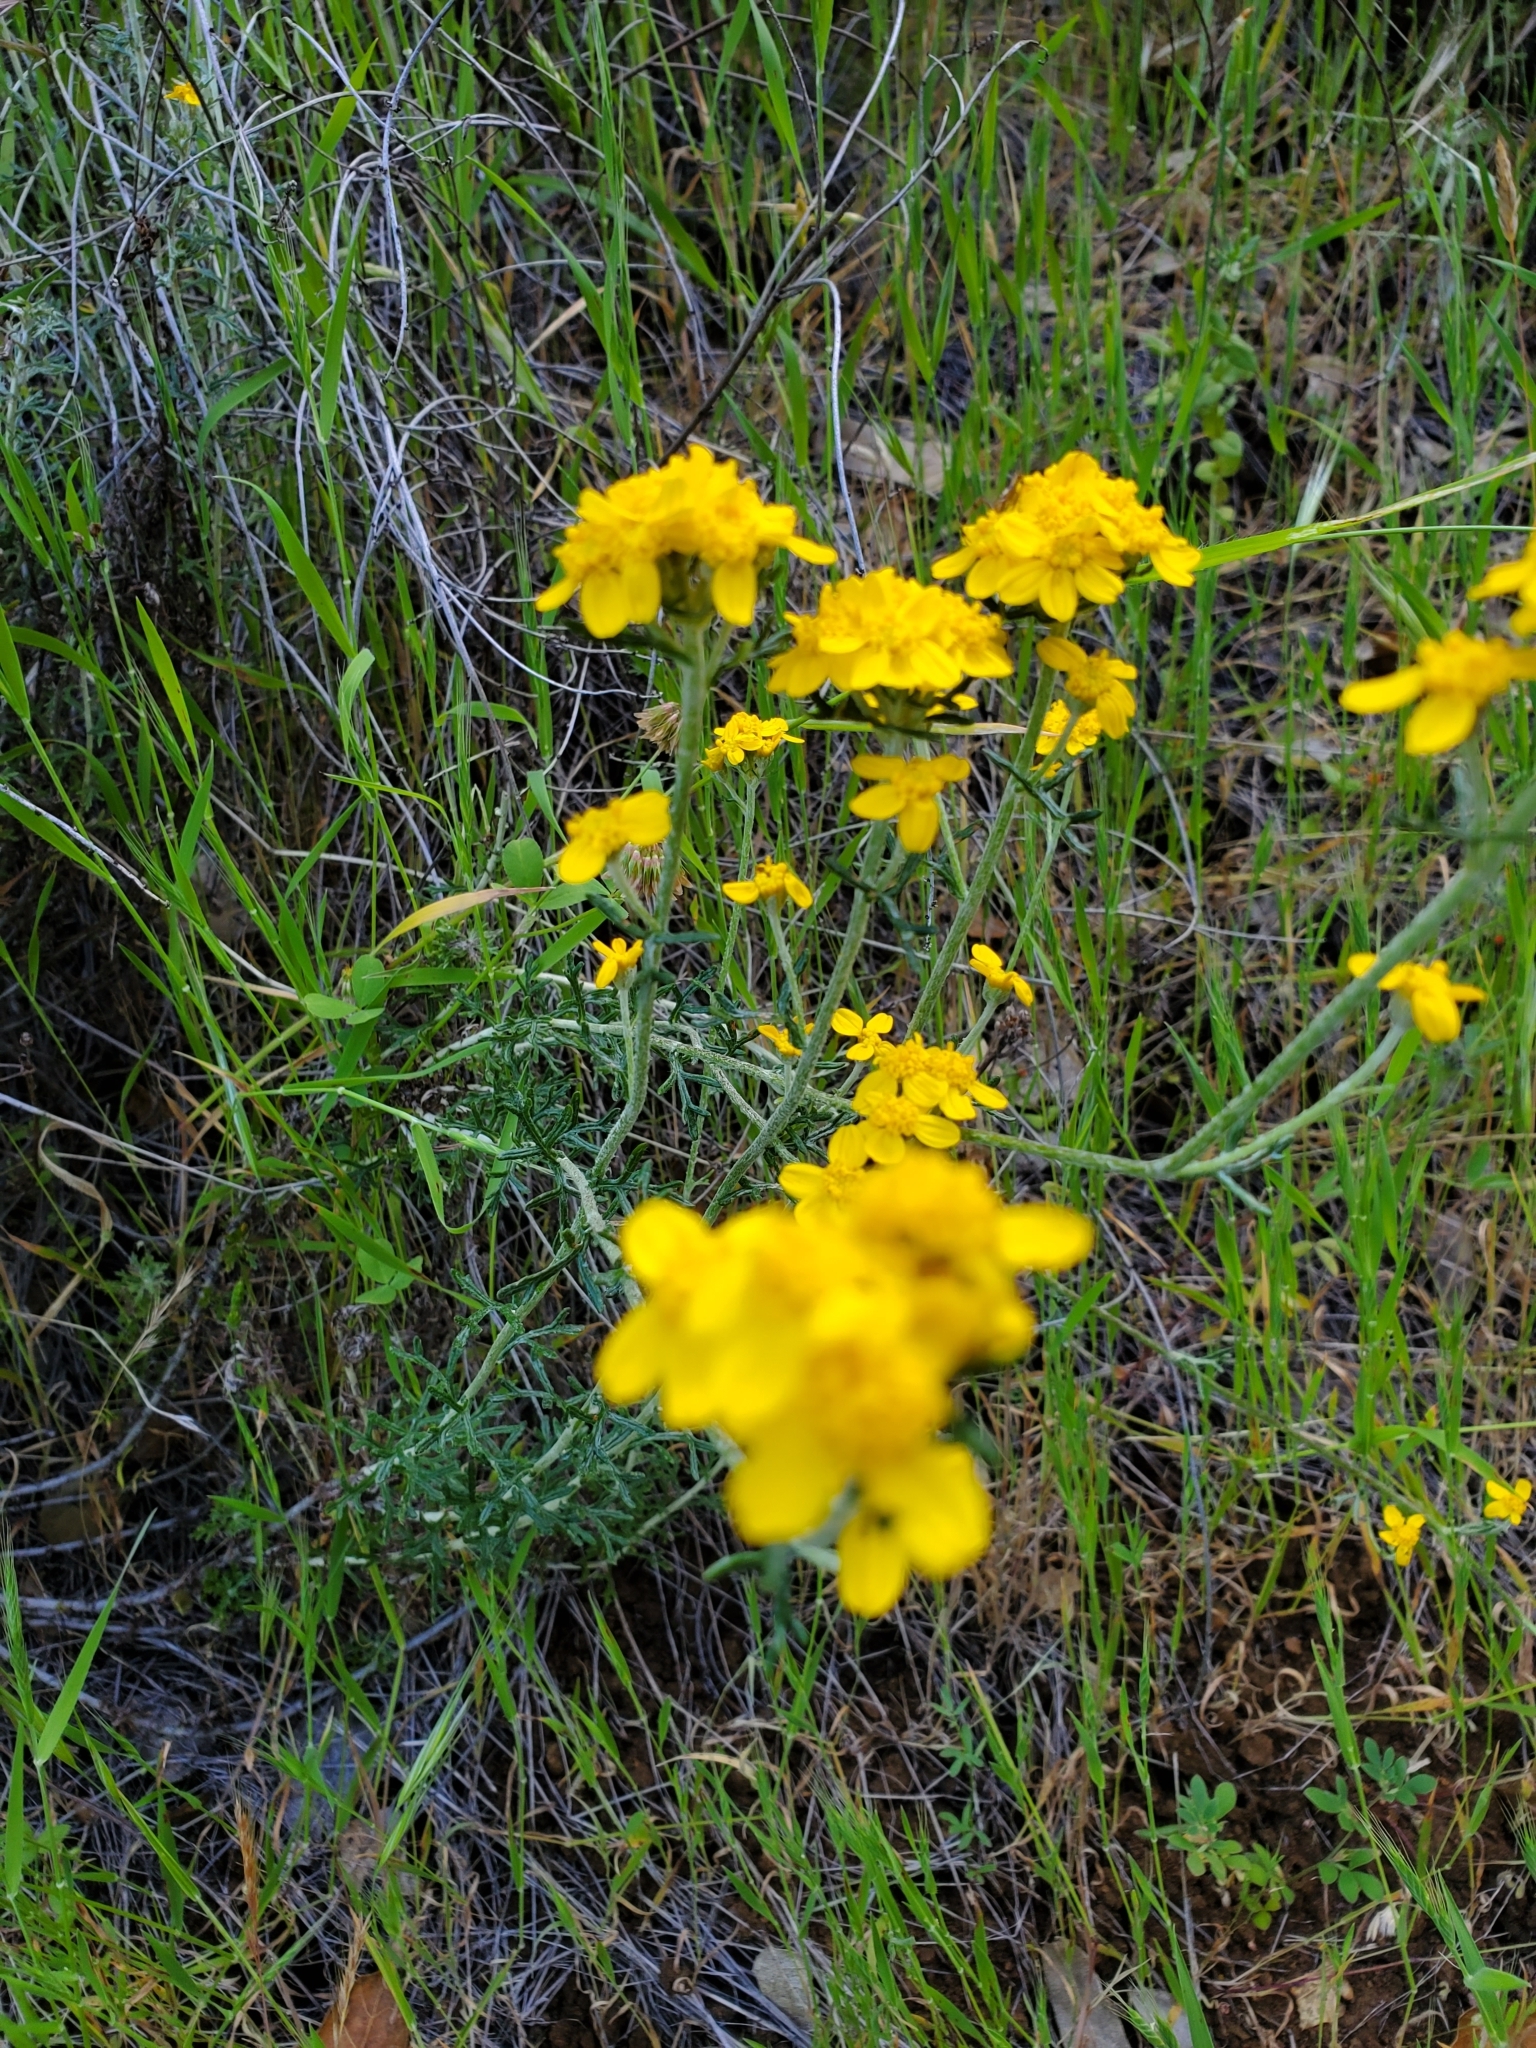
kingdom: Plantae
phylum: Tracheophyta
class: Magnoliopsida
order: Asterales
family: Asteraceae
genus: Eriophyllum
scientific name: Eriophyllum confertiflorum
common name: Golden-yarrow
